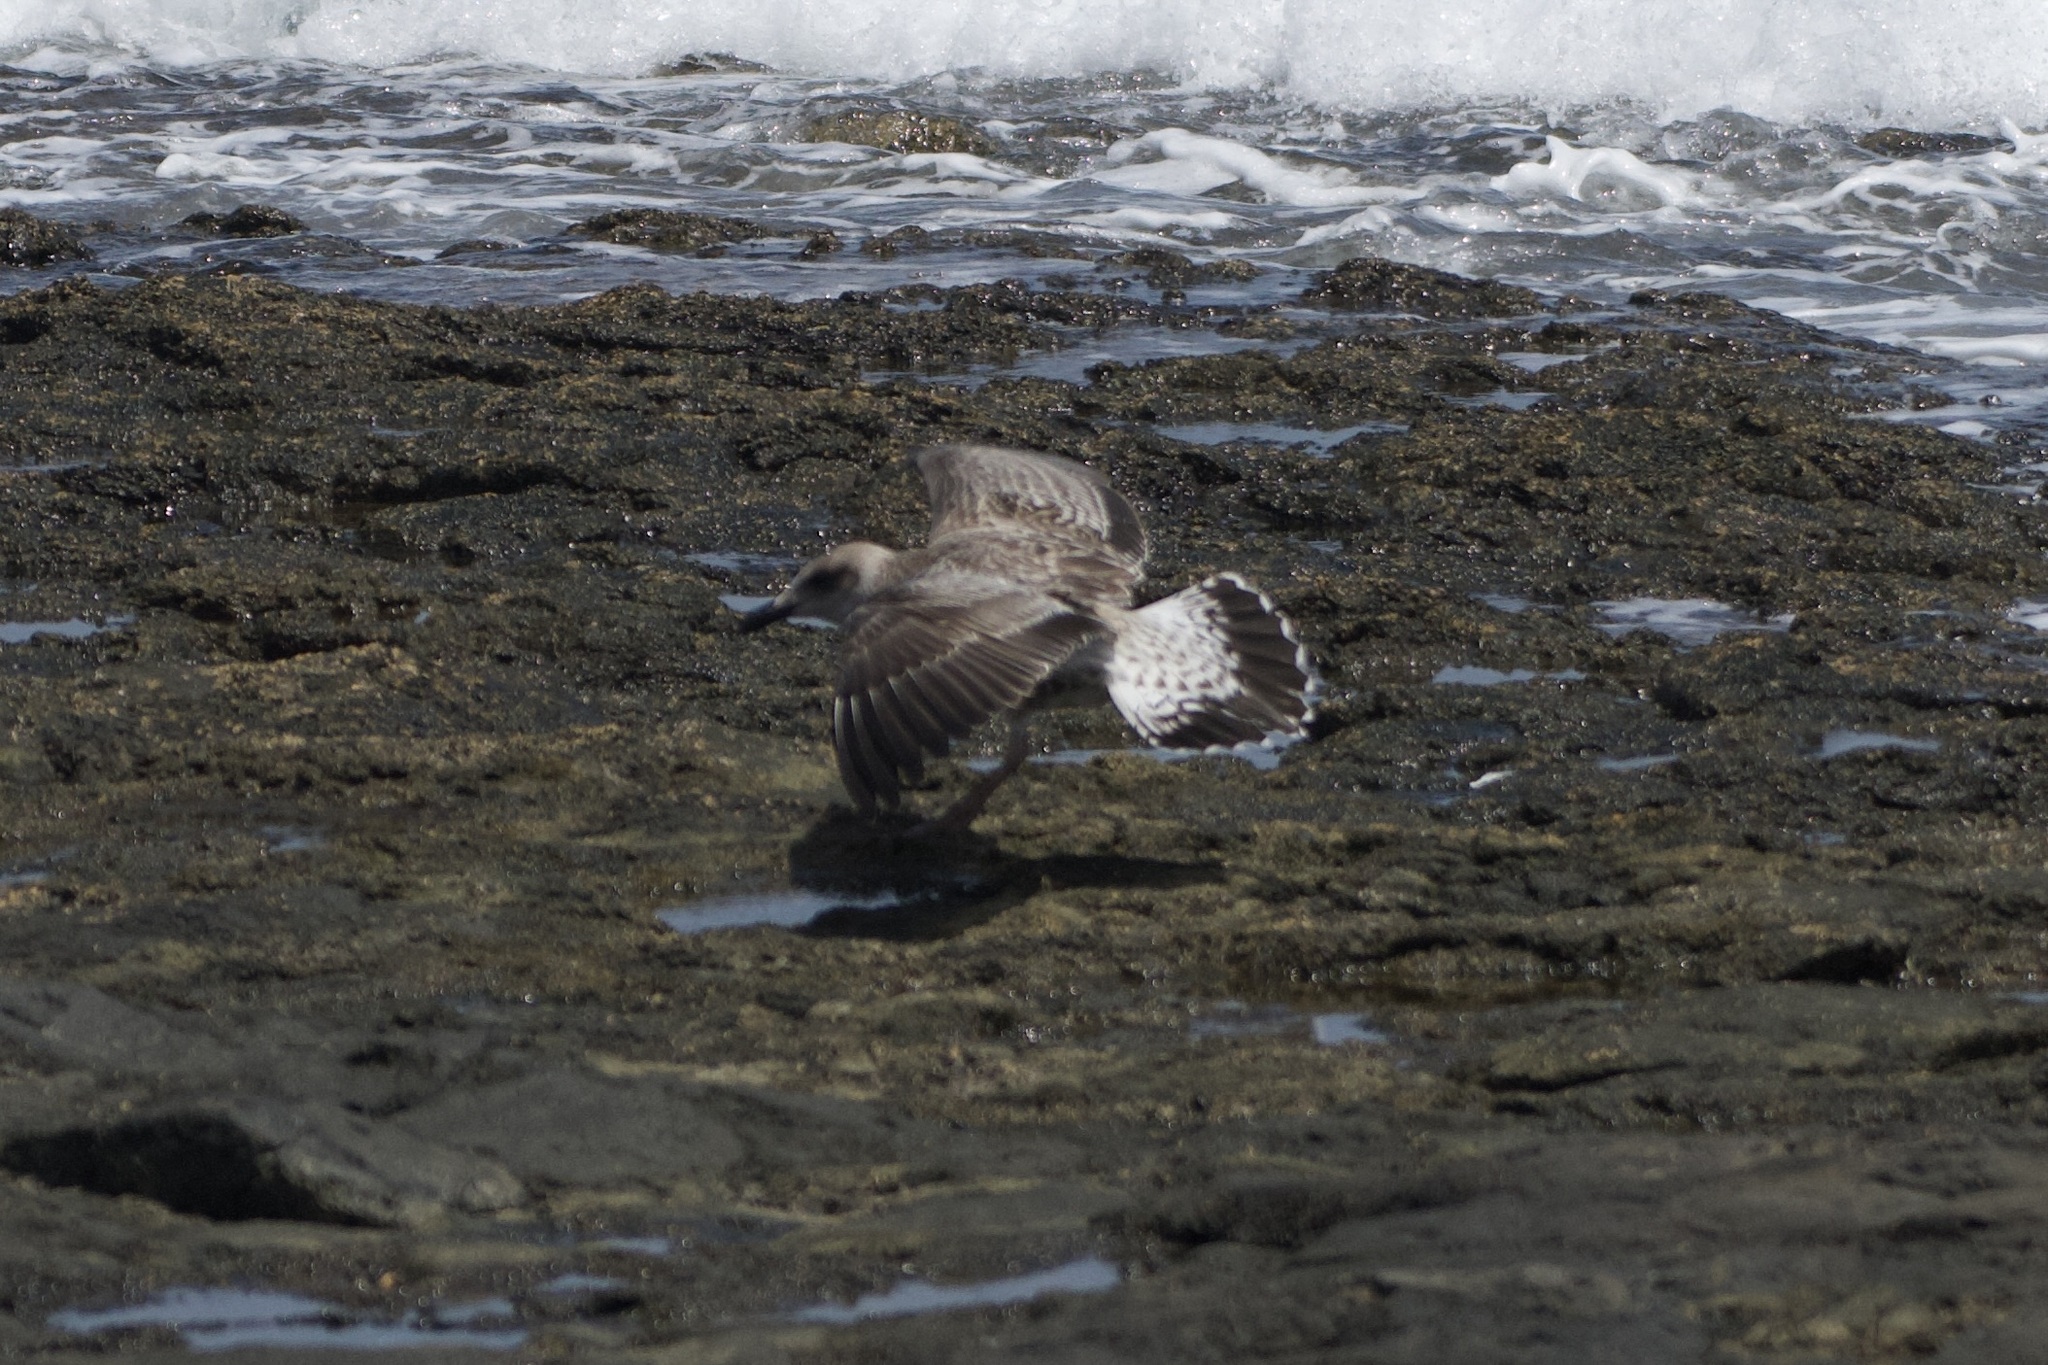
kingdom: Animalia
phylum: Chordata
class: Aves
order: Charadriiformes
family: Laridae
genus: Larus
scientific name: Larus michahellis
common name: Yellow-legged gull
